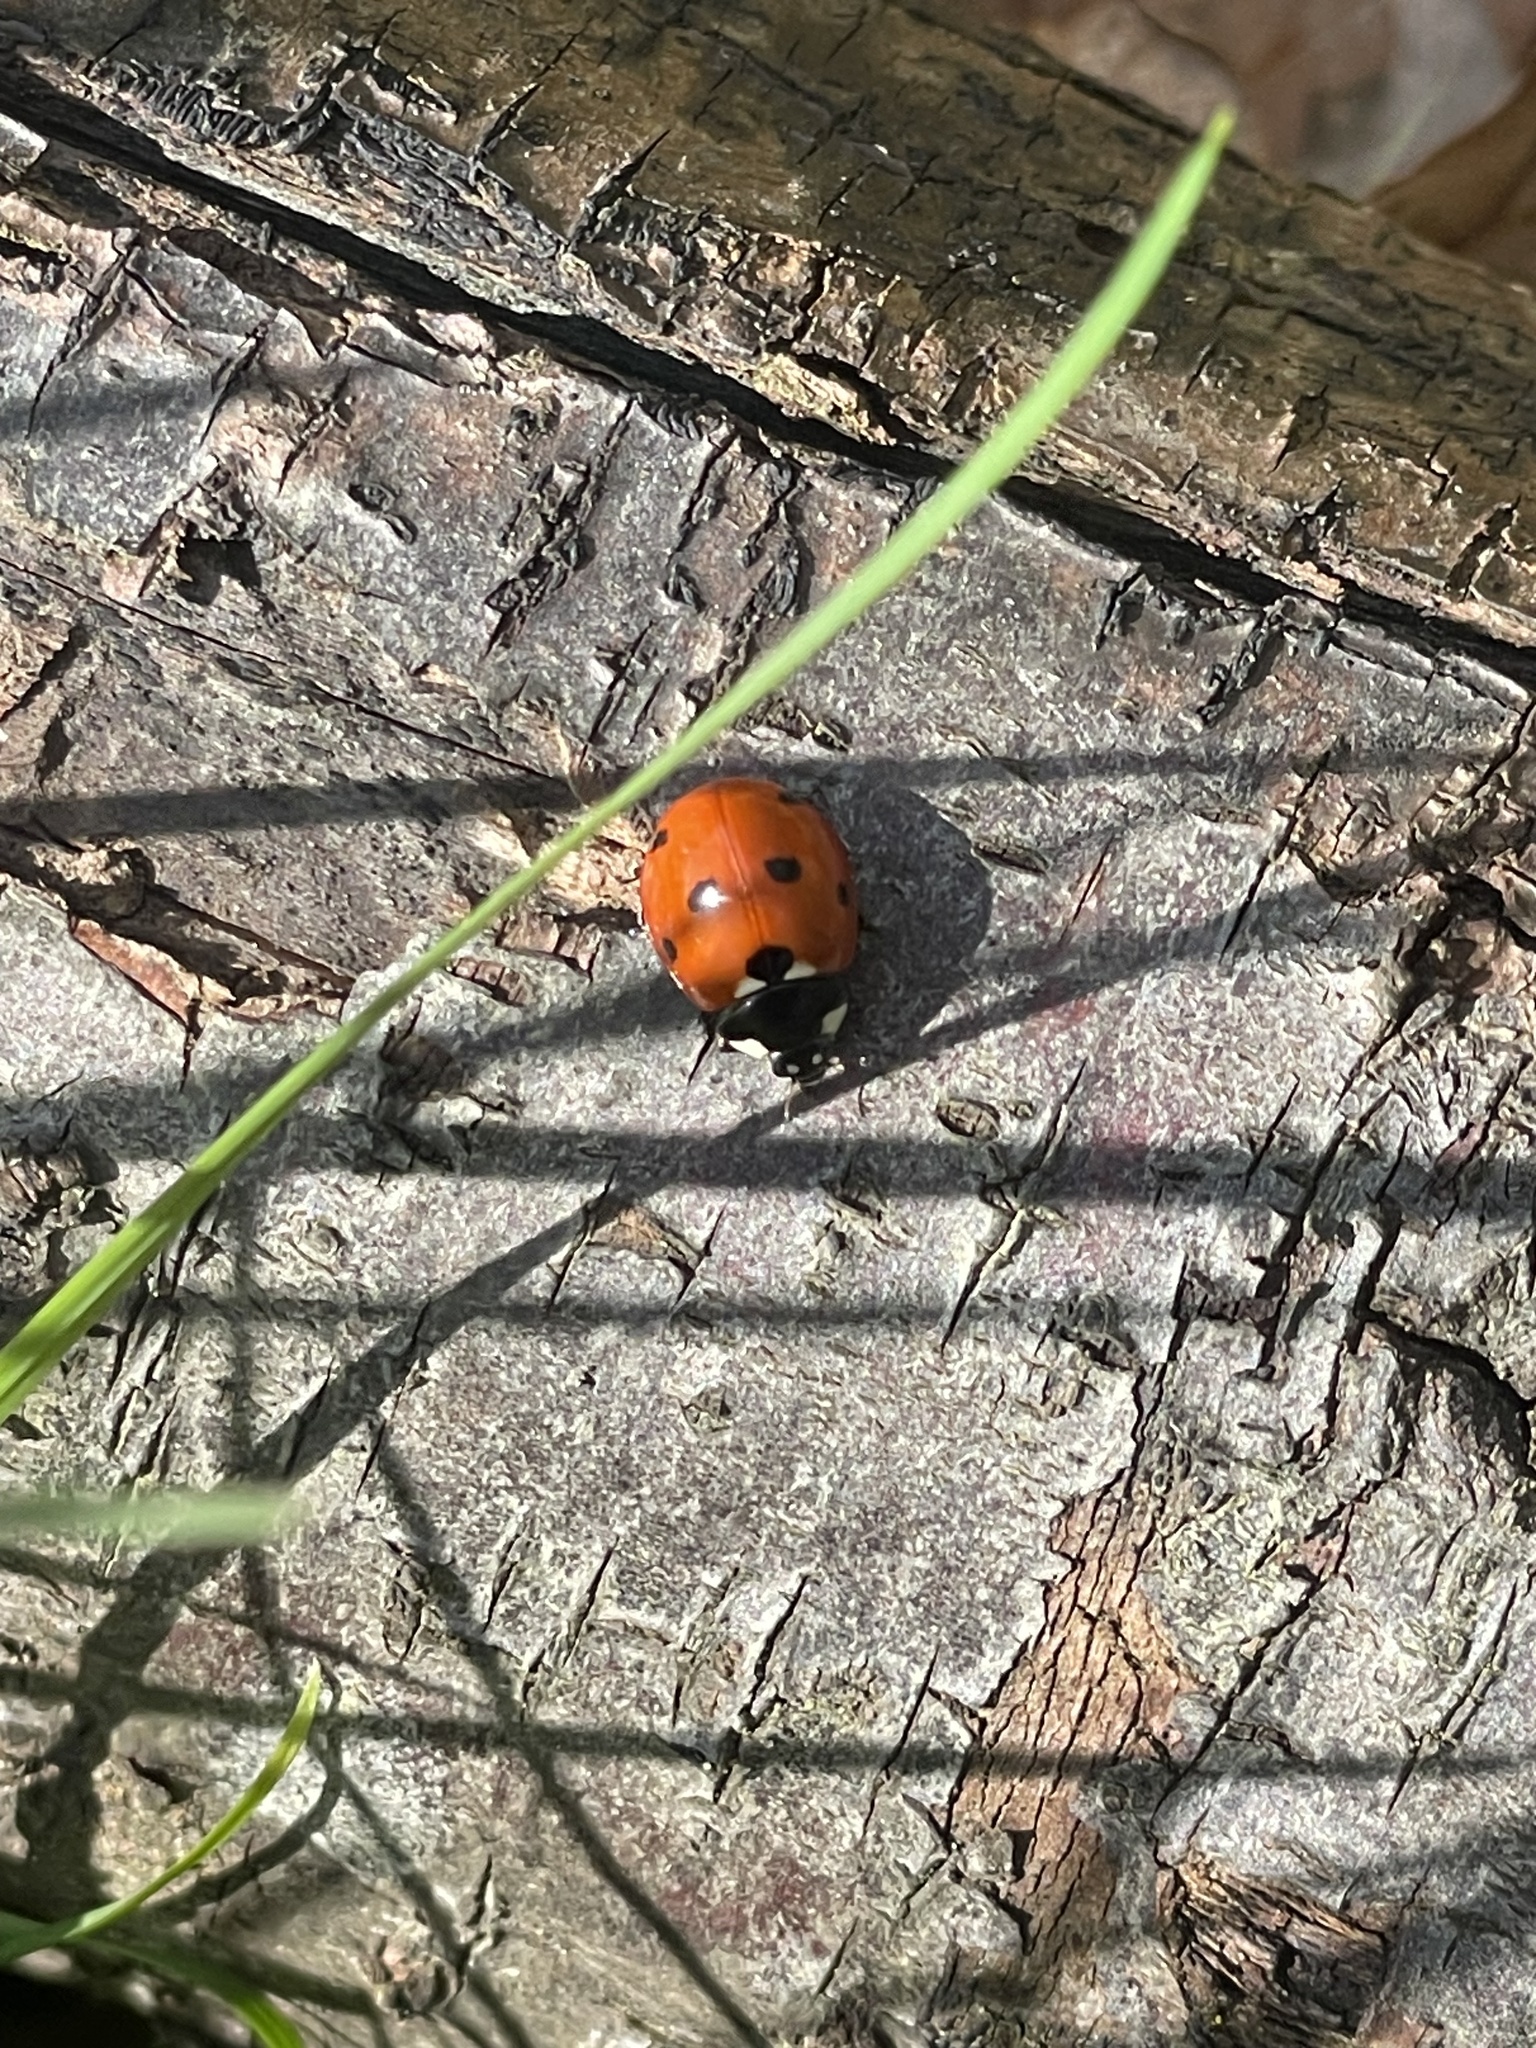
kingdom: Animalia
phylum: Arthropoda
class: Insecta
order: Coleoptera
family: Coccinellidae
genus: Coccinella
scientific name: Coccinella septempunctata
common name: Sevenspotted lady beetle
